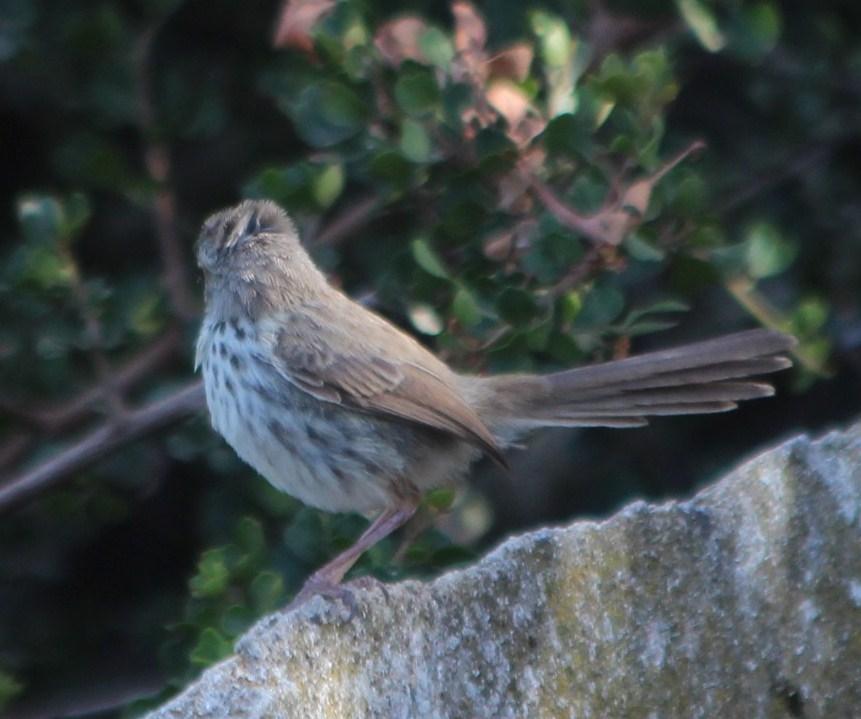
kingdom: Animalia
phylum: Chordata
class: Aves
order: Passeriformes
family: Cisticolidae
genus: Prinia
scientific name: Prinia maculosa
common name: Karoo prinia
